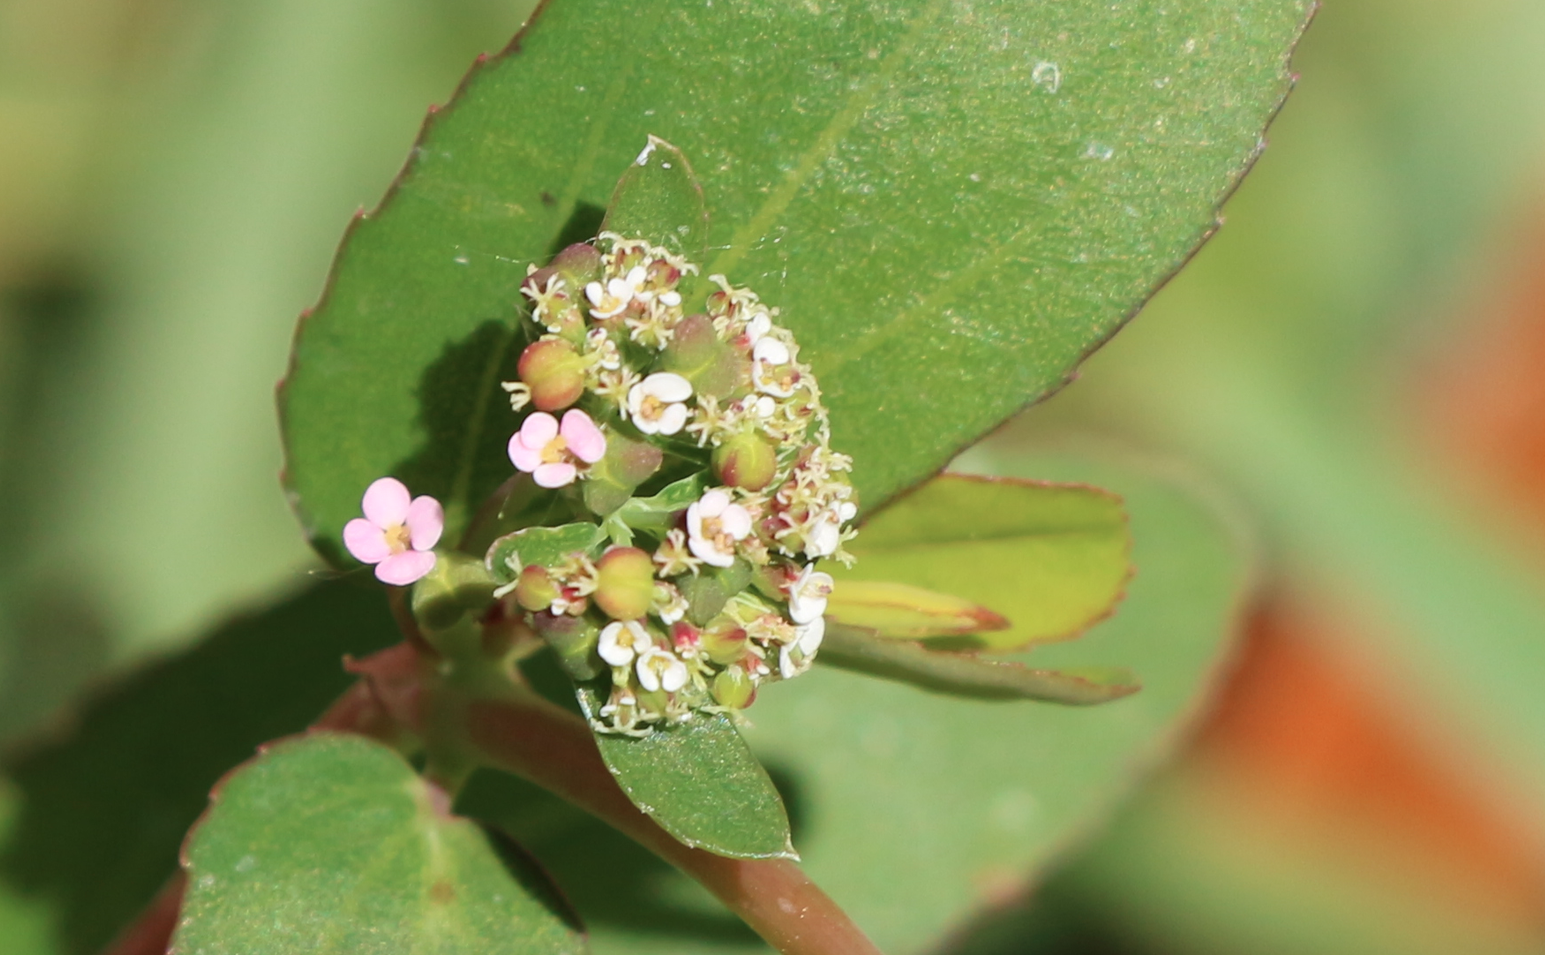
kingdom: Plantae
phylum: Tracheophyta
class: Magnoliopsida
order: Malpighiales
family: Euphorbiaceae
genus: Euphorbia
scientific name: Euphorbia hypericifolia
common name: Graceful sandmat
